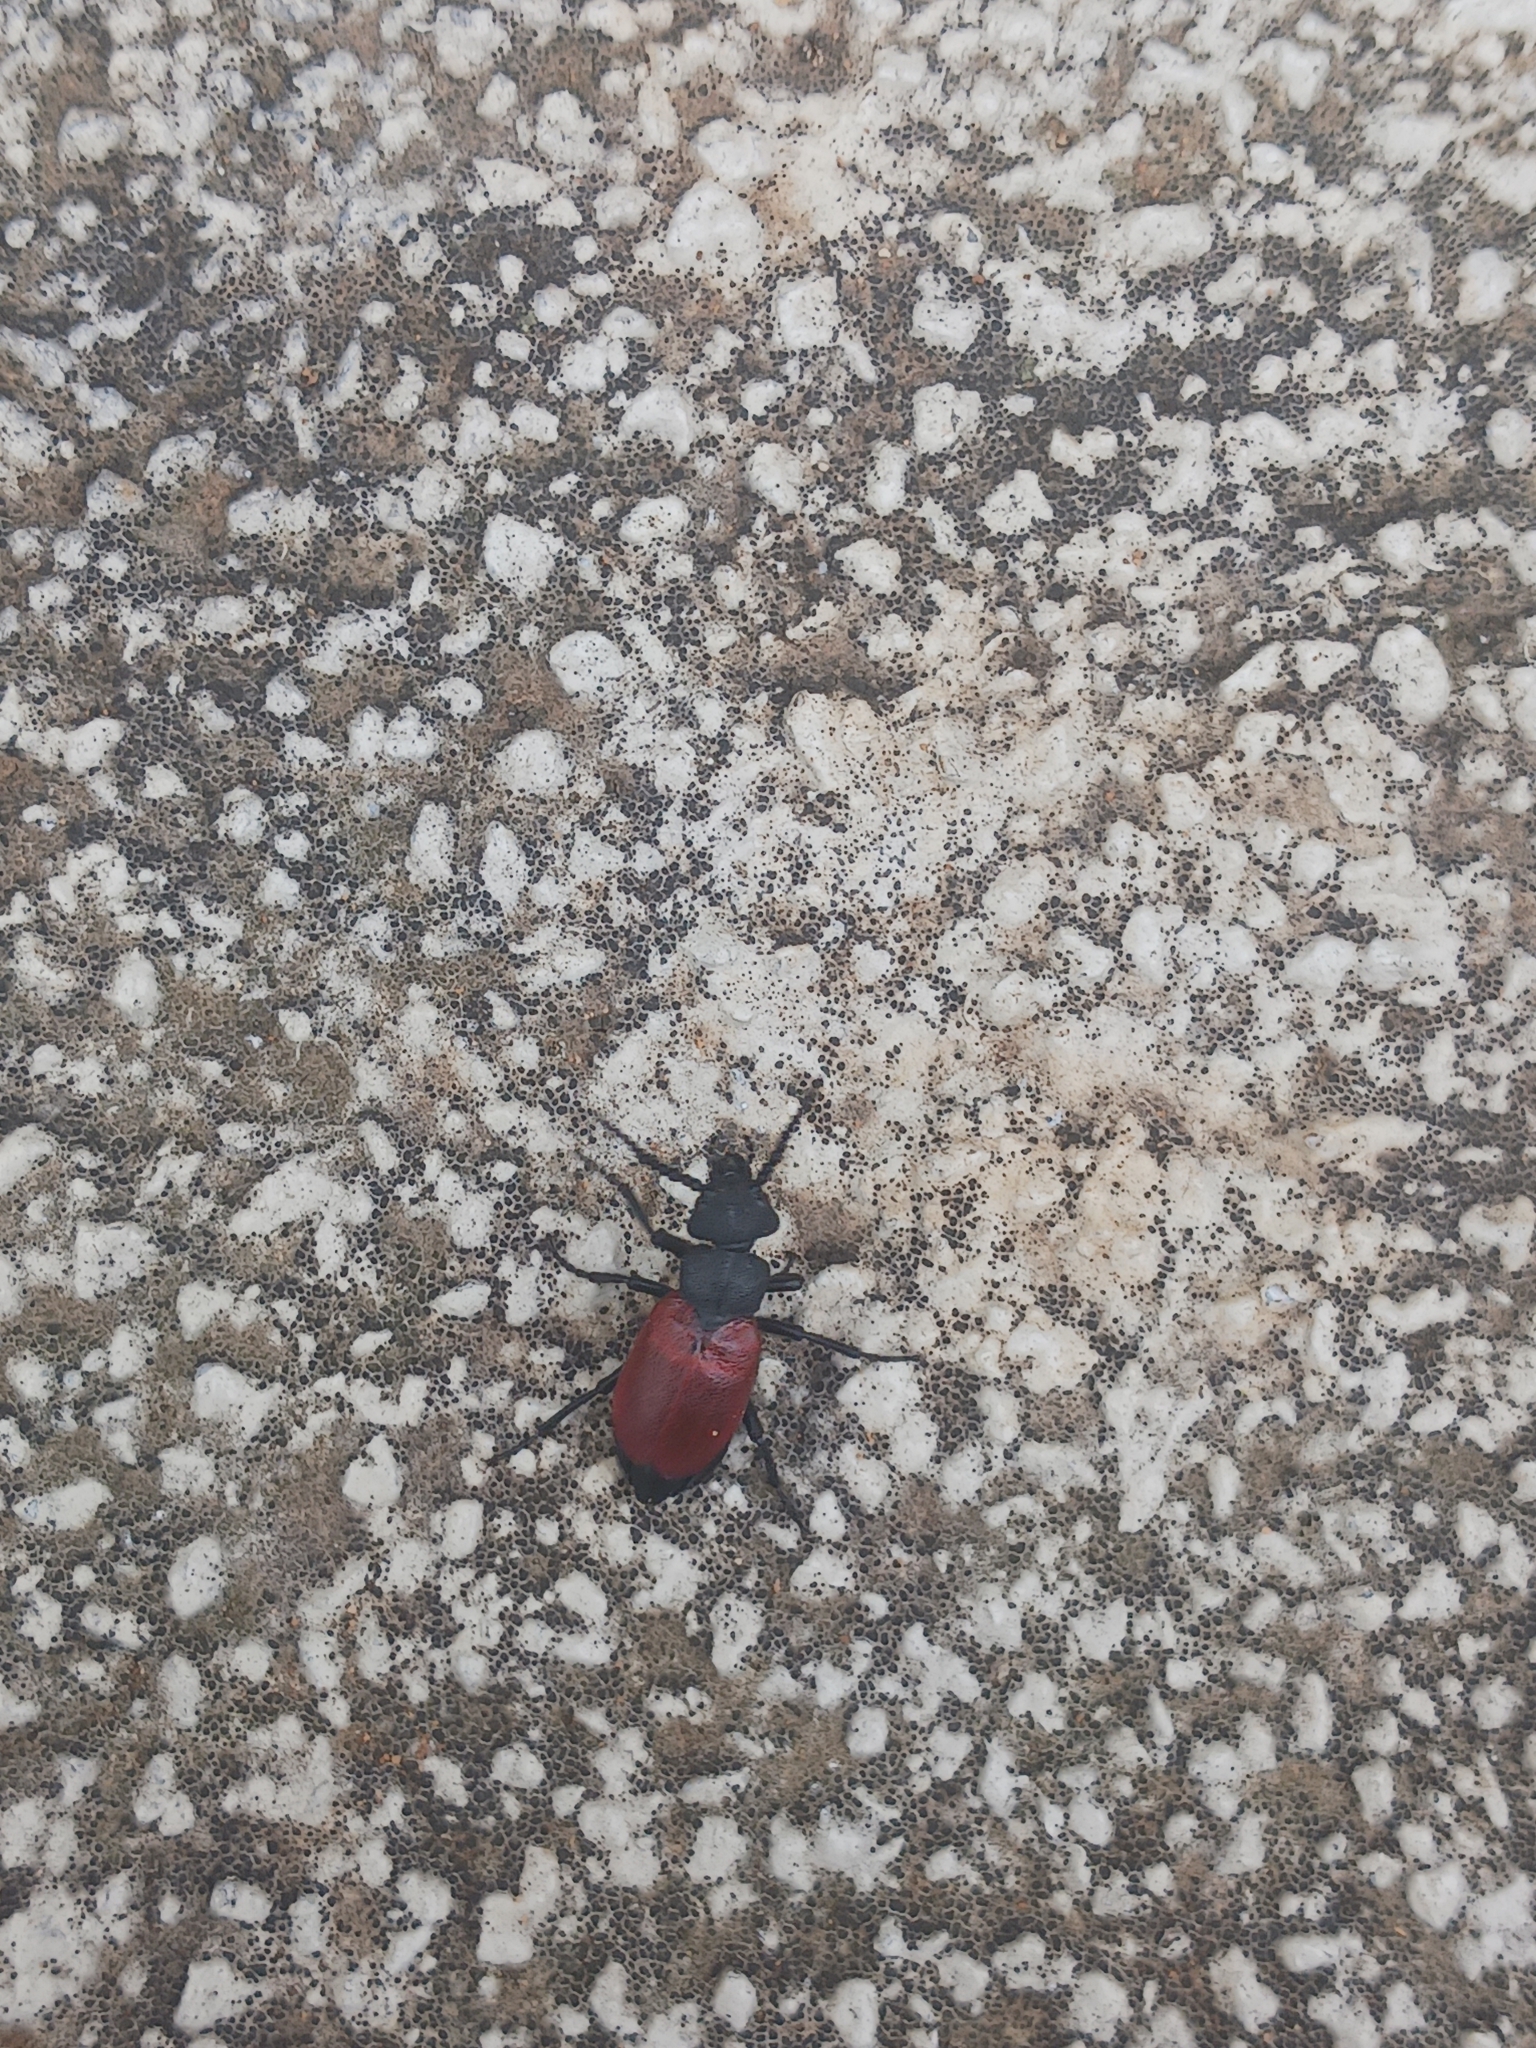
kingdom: Animalia
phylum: Arthropoda
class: Insecta
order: Coleoptera
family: Meloidae
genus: Tricrania
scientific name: Tricrania sanguinipennis
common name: Blood-winged blister beetle
